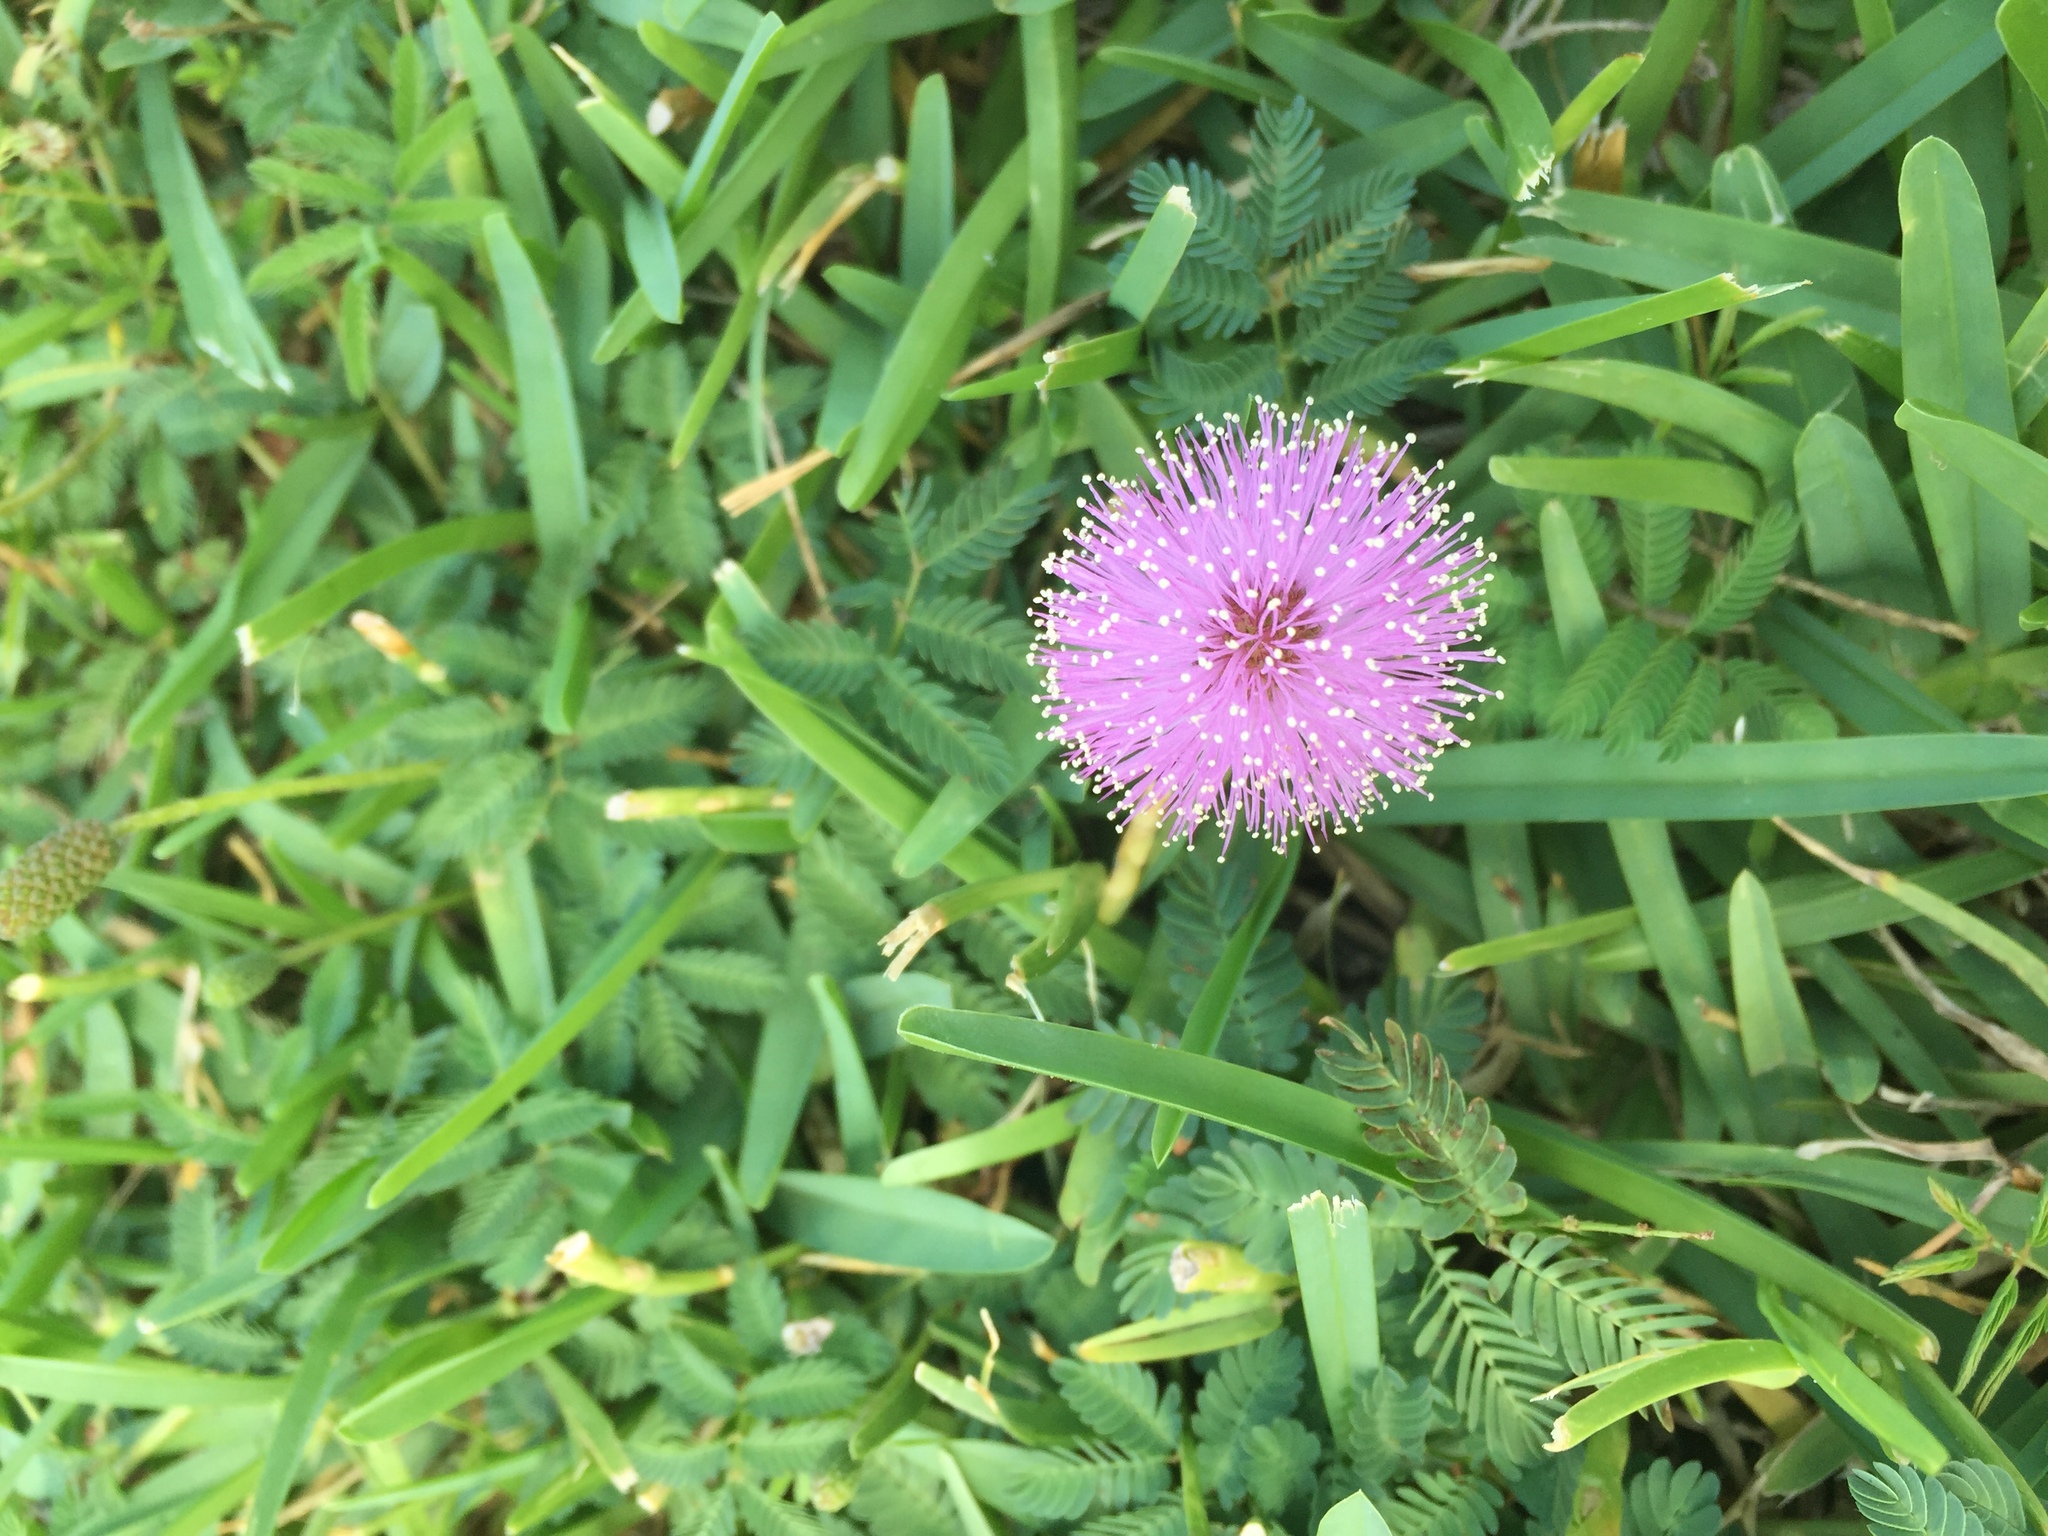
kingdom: Plantae
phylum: Tracheophyta
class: Magnoliopsida
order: Fabales
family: Fabaceae
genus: Mimosa
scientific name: Mimosa strigillosa
